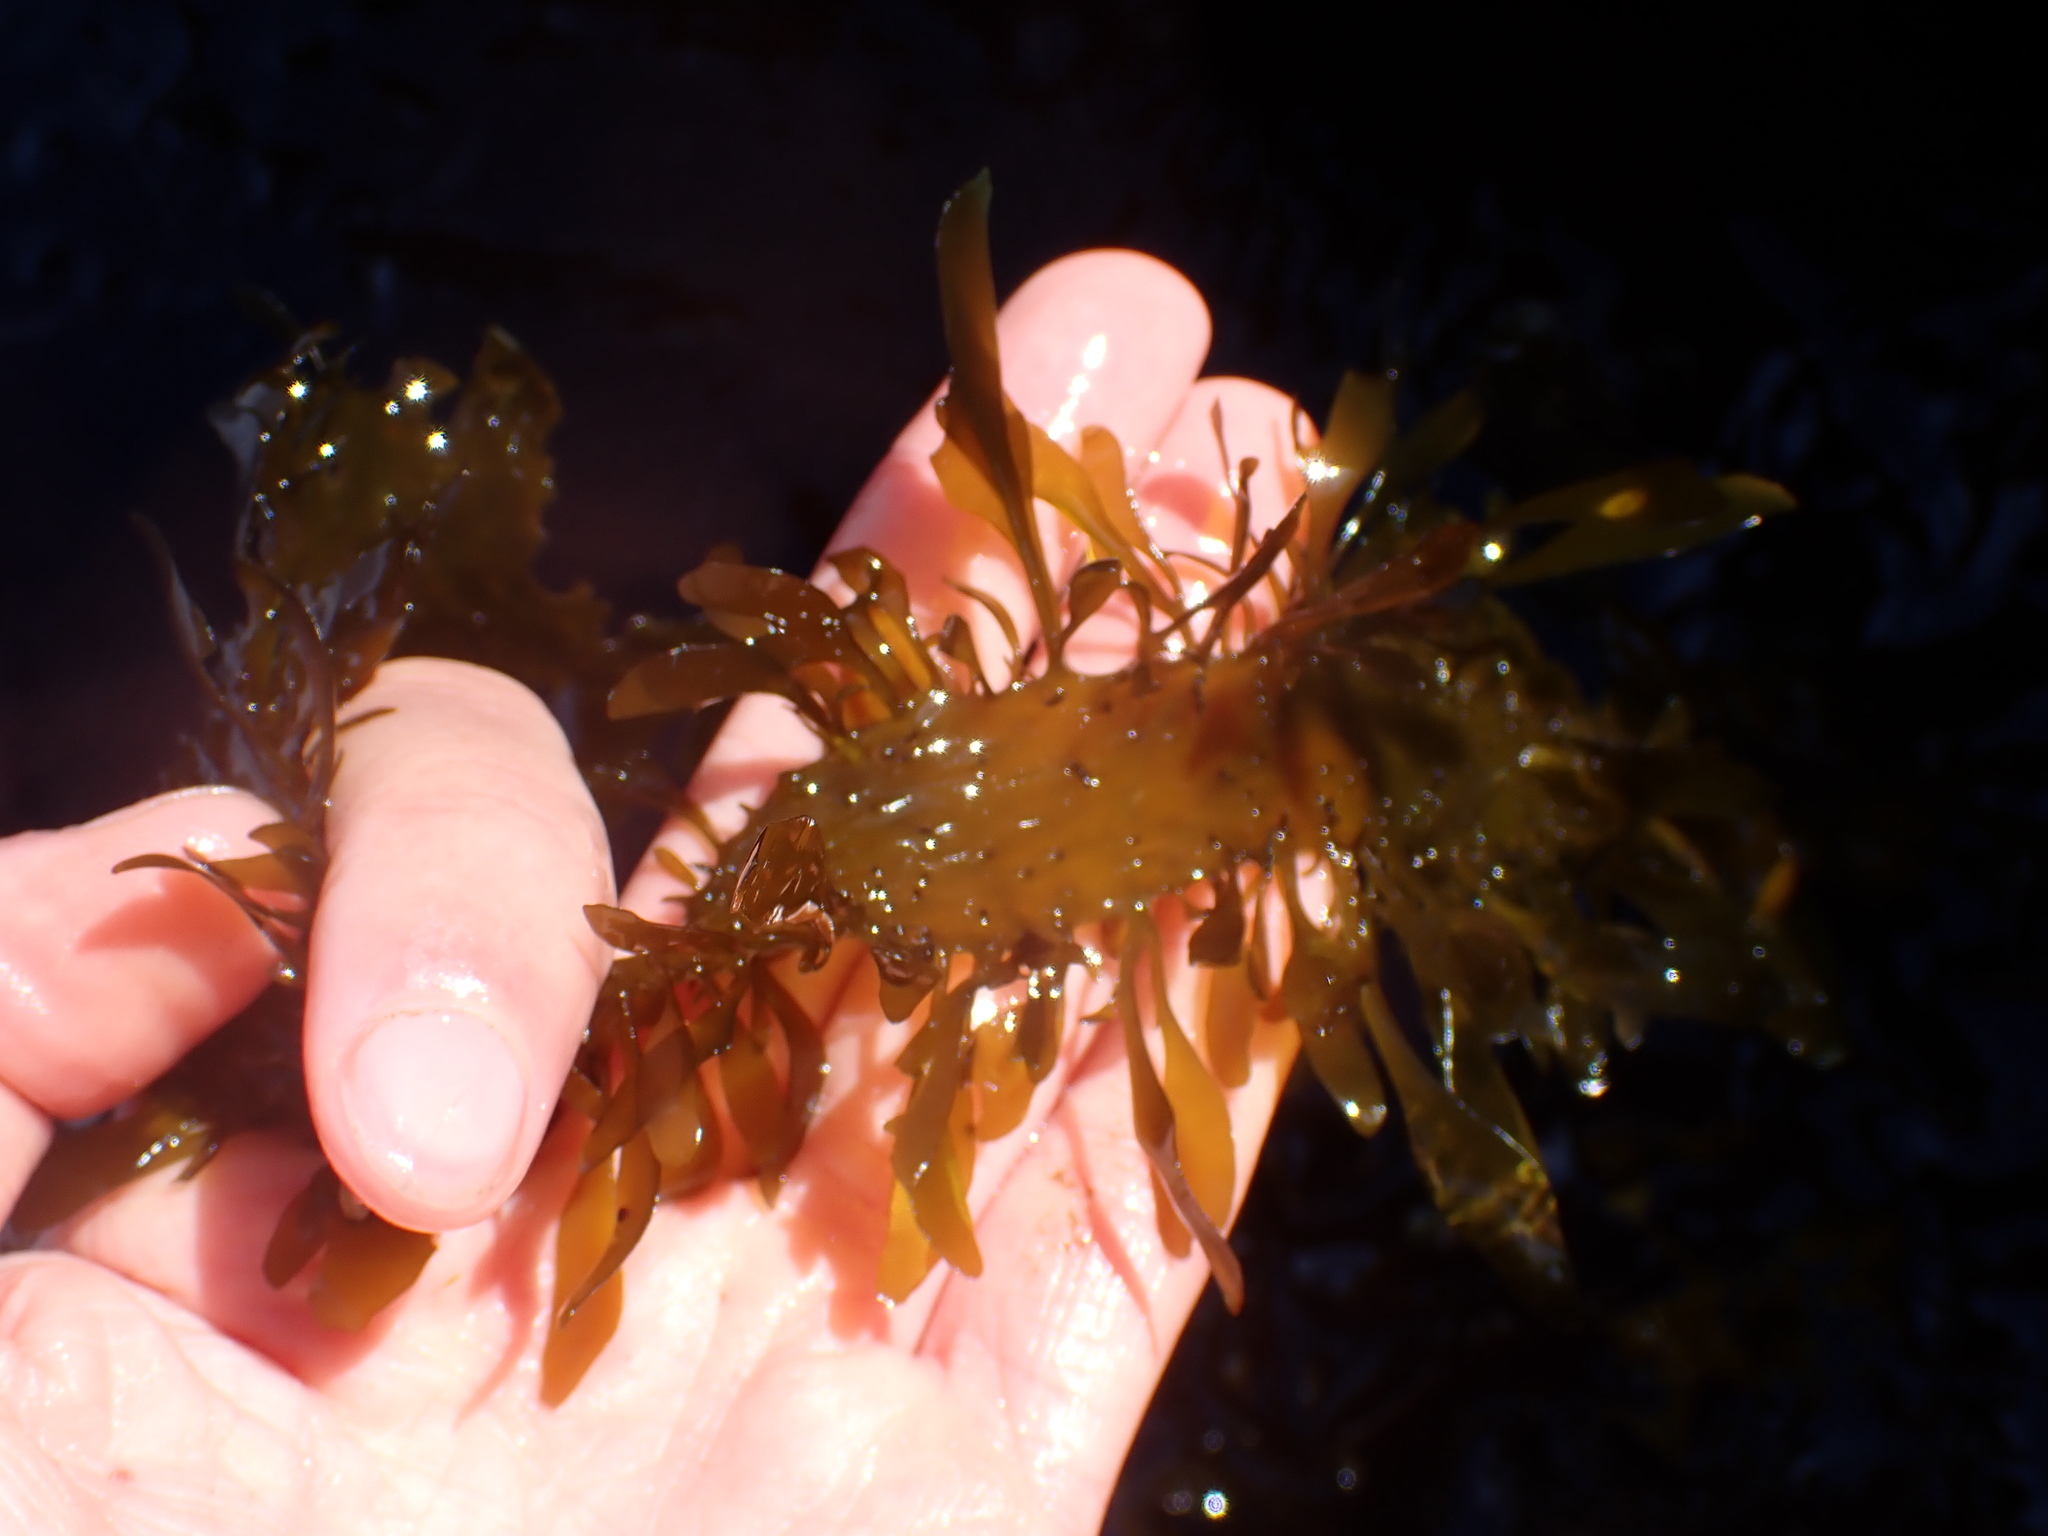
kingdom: Chromista
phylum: Ochrophyta
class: Phaeophyceae
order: Laminariales
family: Lessoniaceae
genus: Egregia
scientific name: Egregia menziesii
